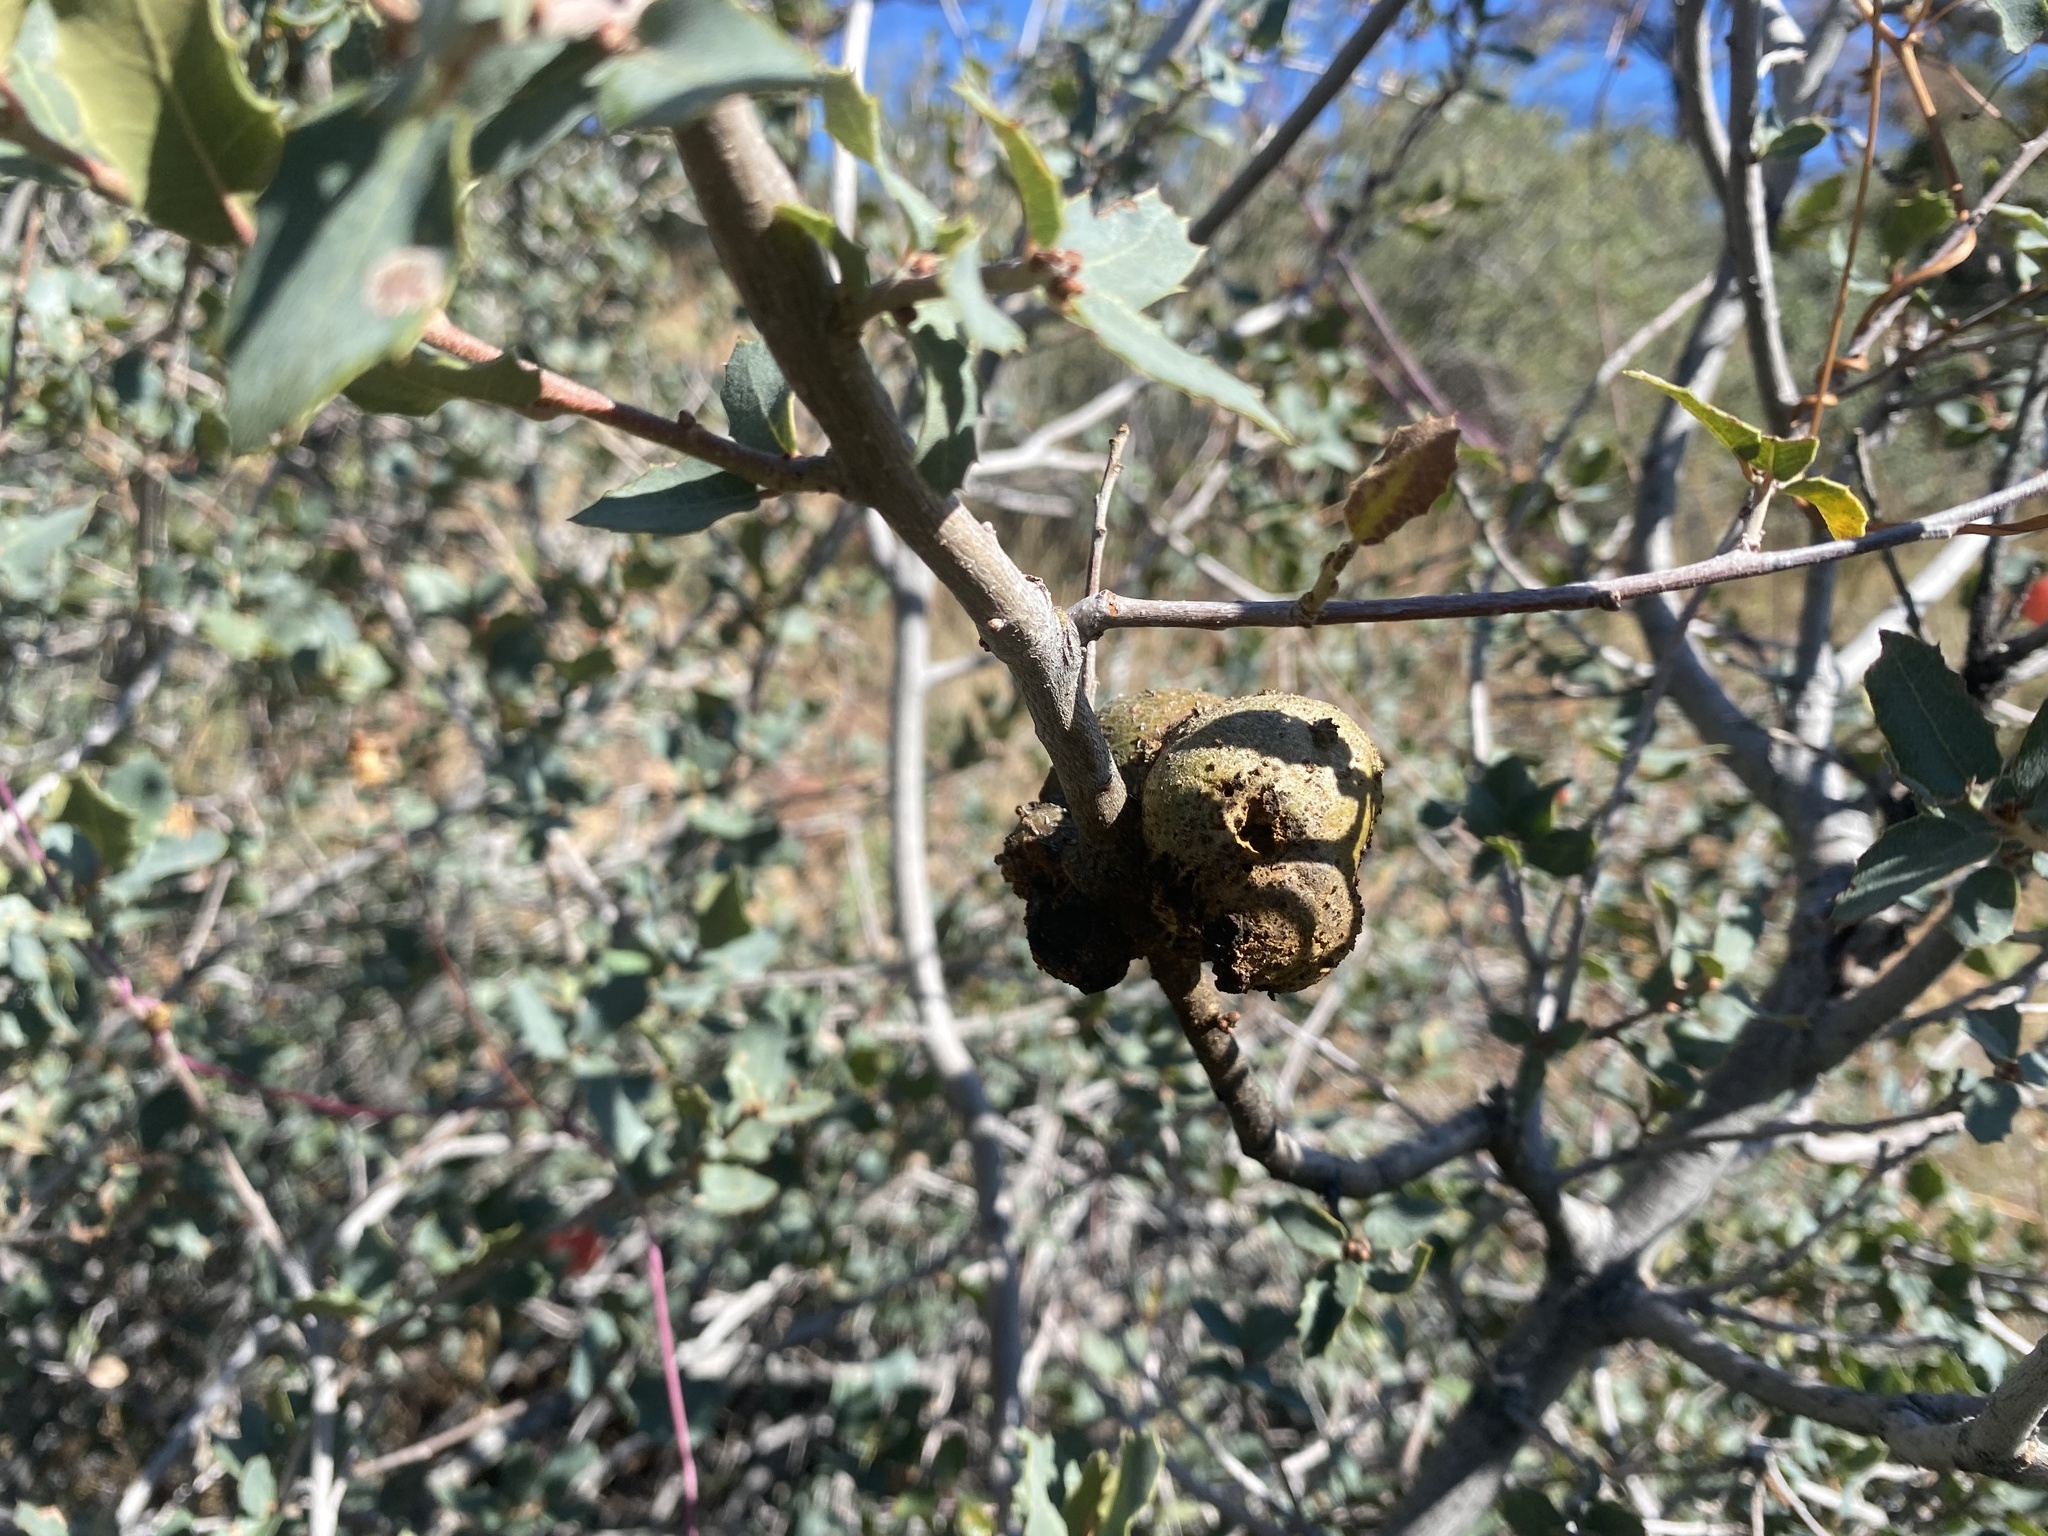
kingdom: Animalia
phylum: Arthropoda
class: Insecta
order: Hymenoptera
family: Cynipidae
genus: Andricus
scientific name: Andricus
